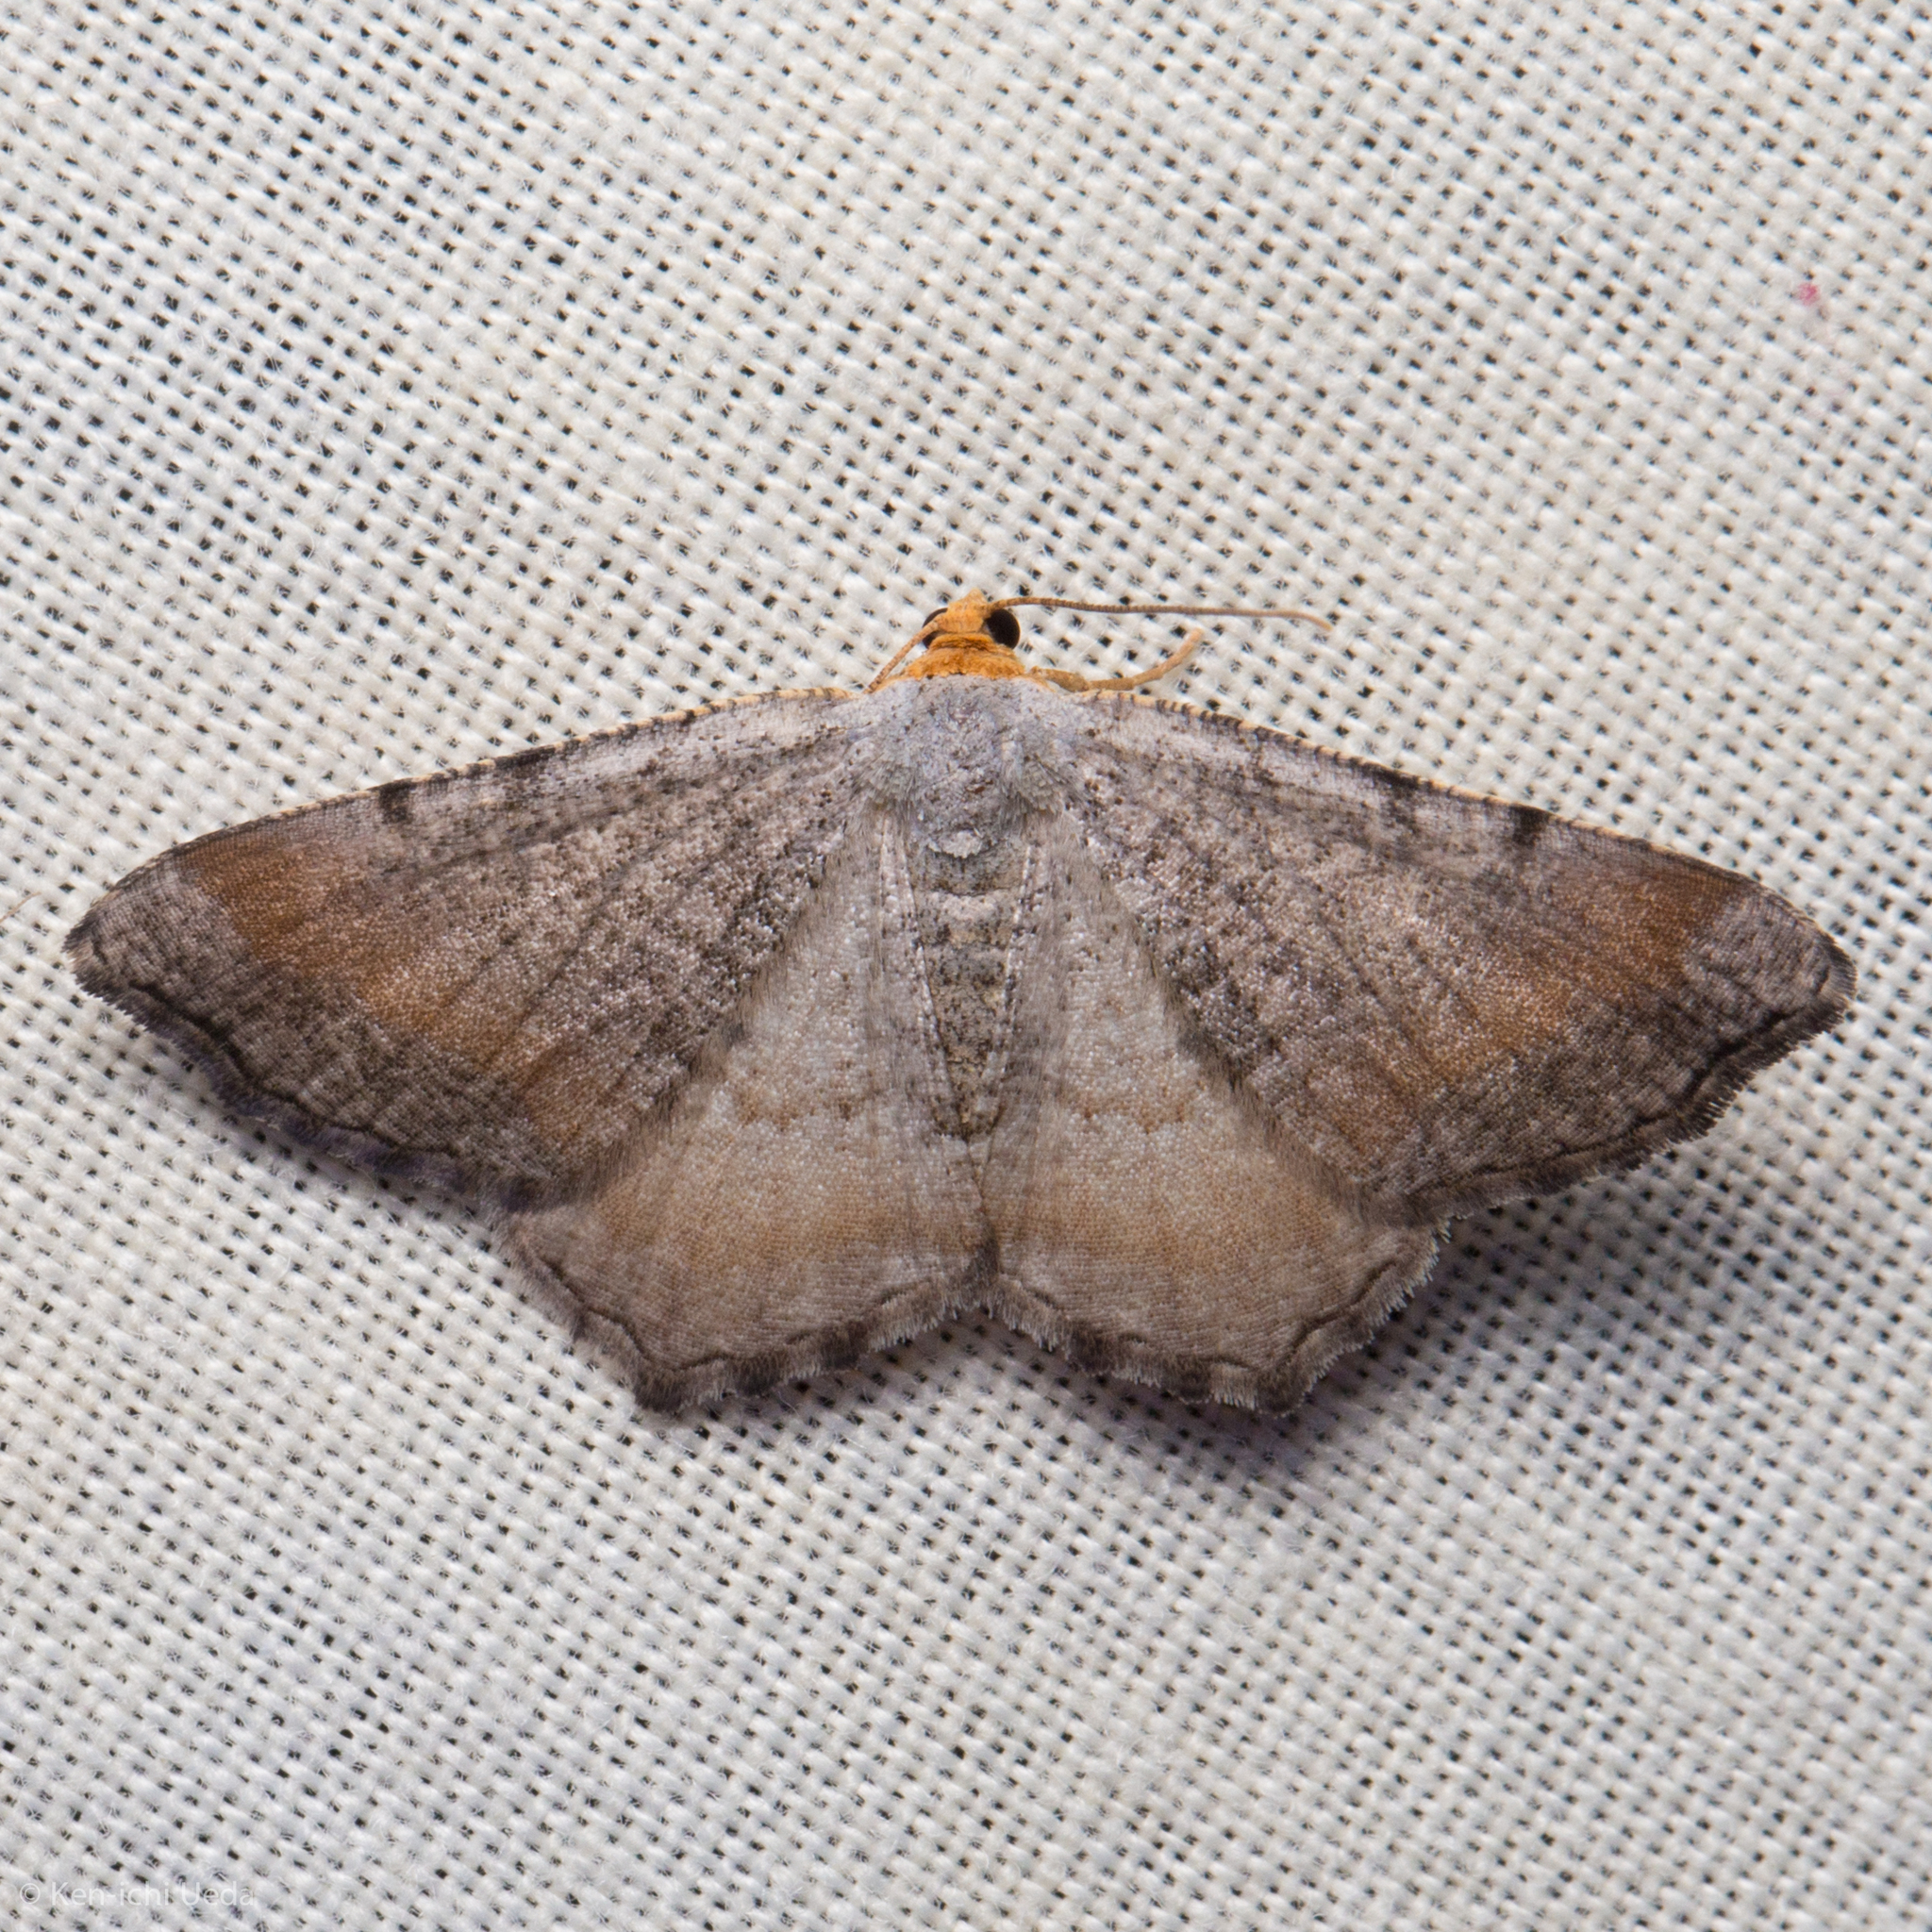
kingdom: Animalia
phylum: Arthropoda
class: Insecta
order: Lepidoptera
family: Geometridae
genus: Macaria
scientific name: Macaria transitaria
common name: Blurry chocolate angle
